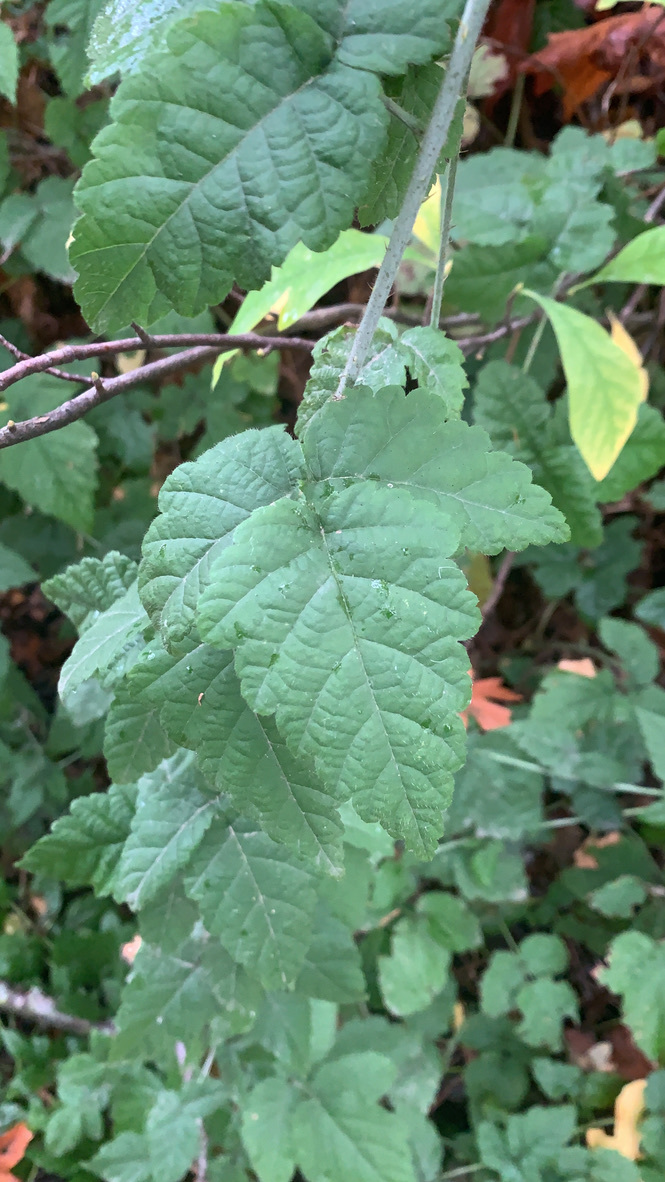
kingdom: Plantae
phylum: Tracheophyta
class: Magnoliopsida
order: Rosales
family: Rosaceae
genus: Rubus
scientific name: Rubus ursinus
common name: Pacific blackberry
